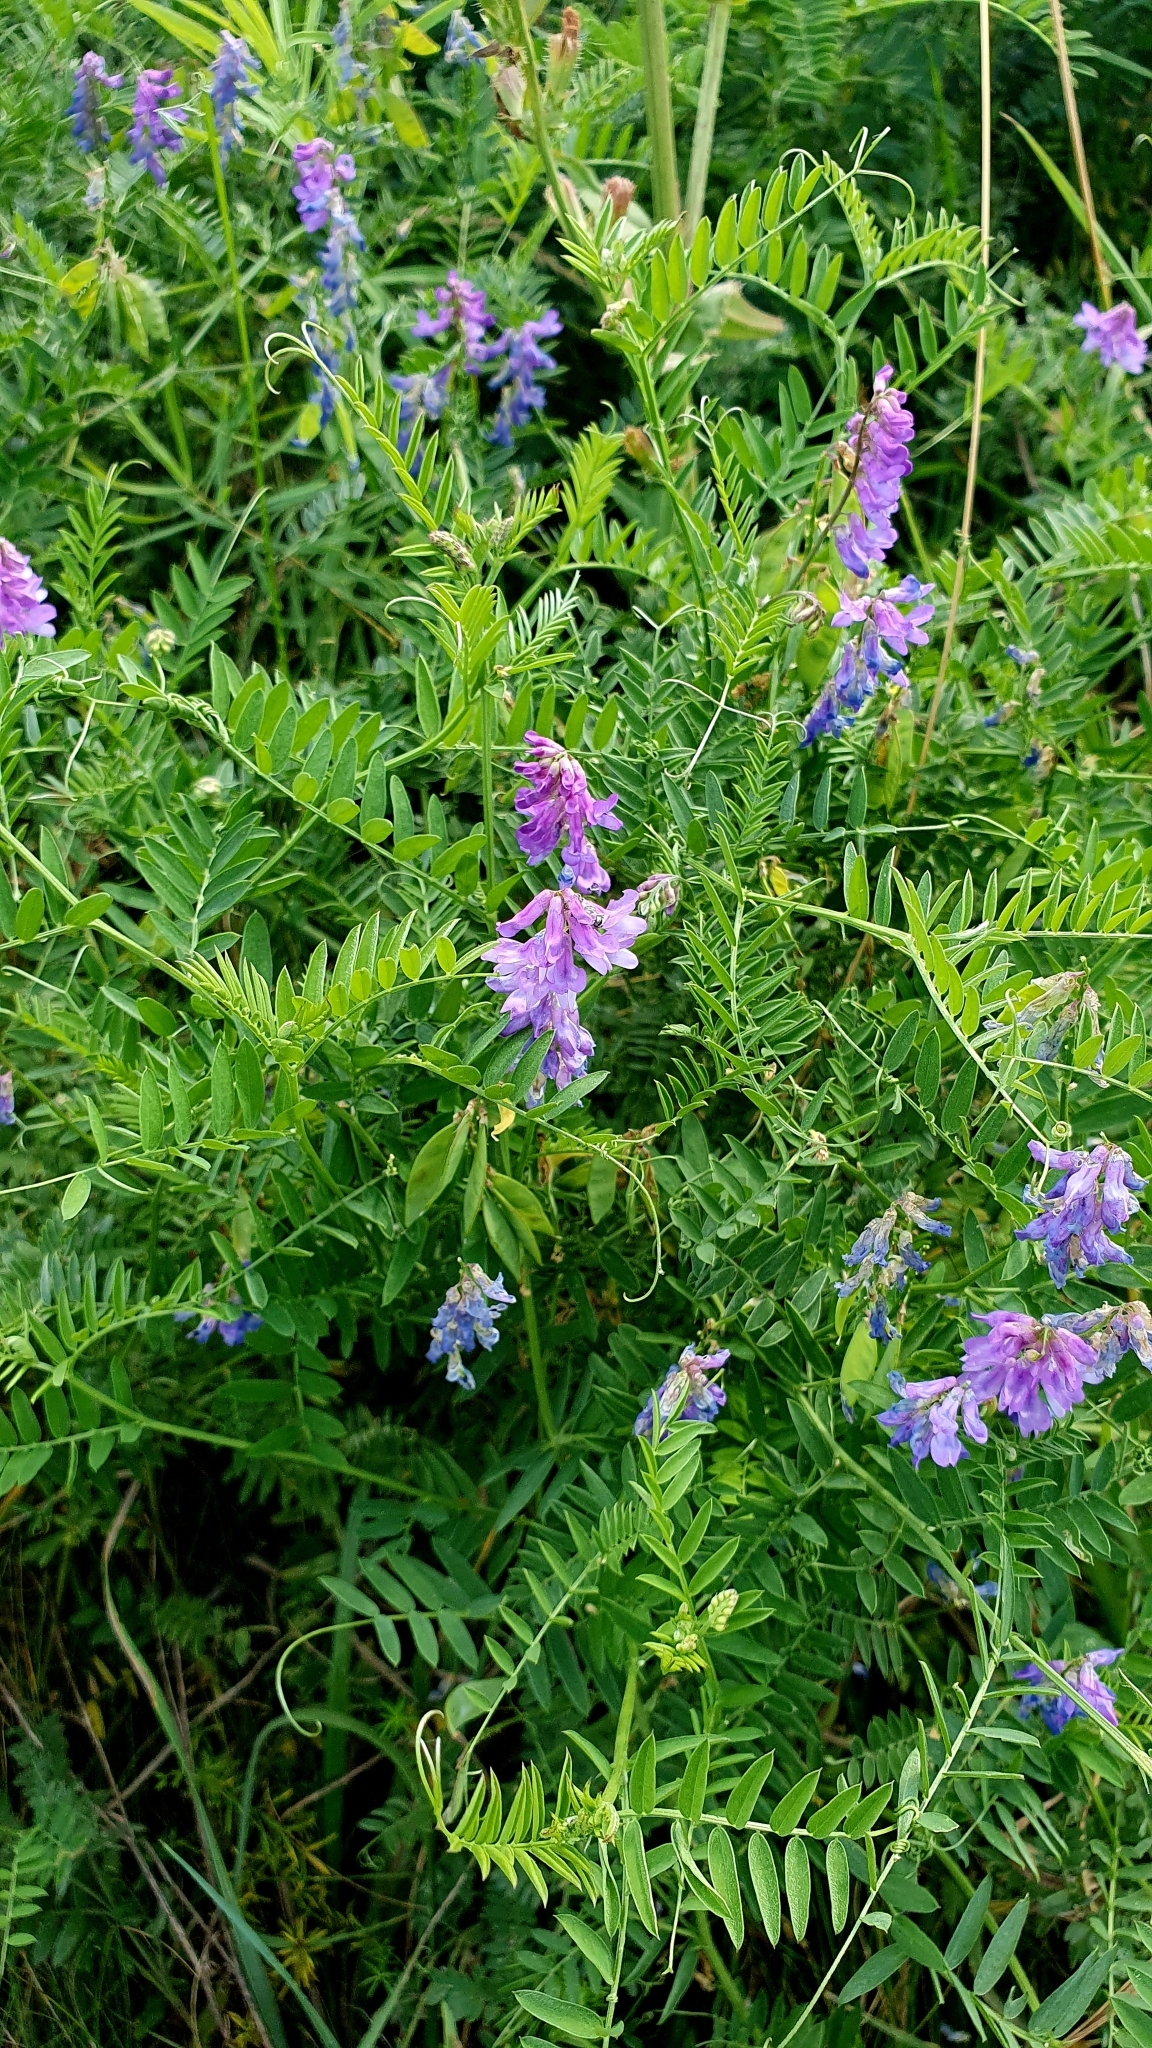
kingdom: Plantae
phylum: Tracheophyta
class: Magnoliopsida
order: Fabales
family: Fabaceae
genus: Vicia
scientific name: Vicia cracca
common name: Bird vetch
